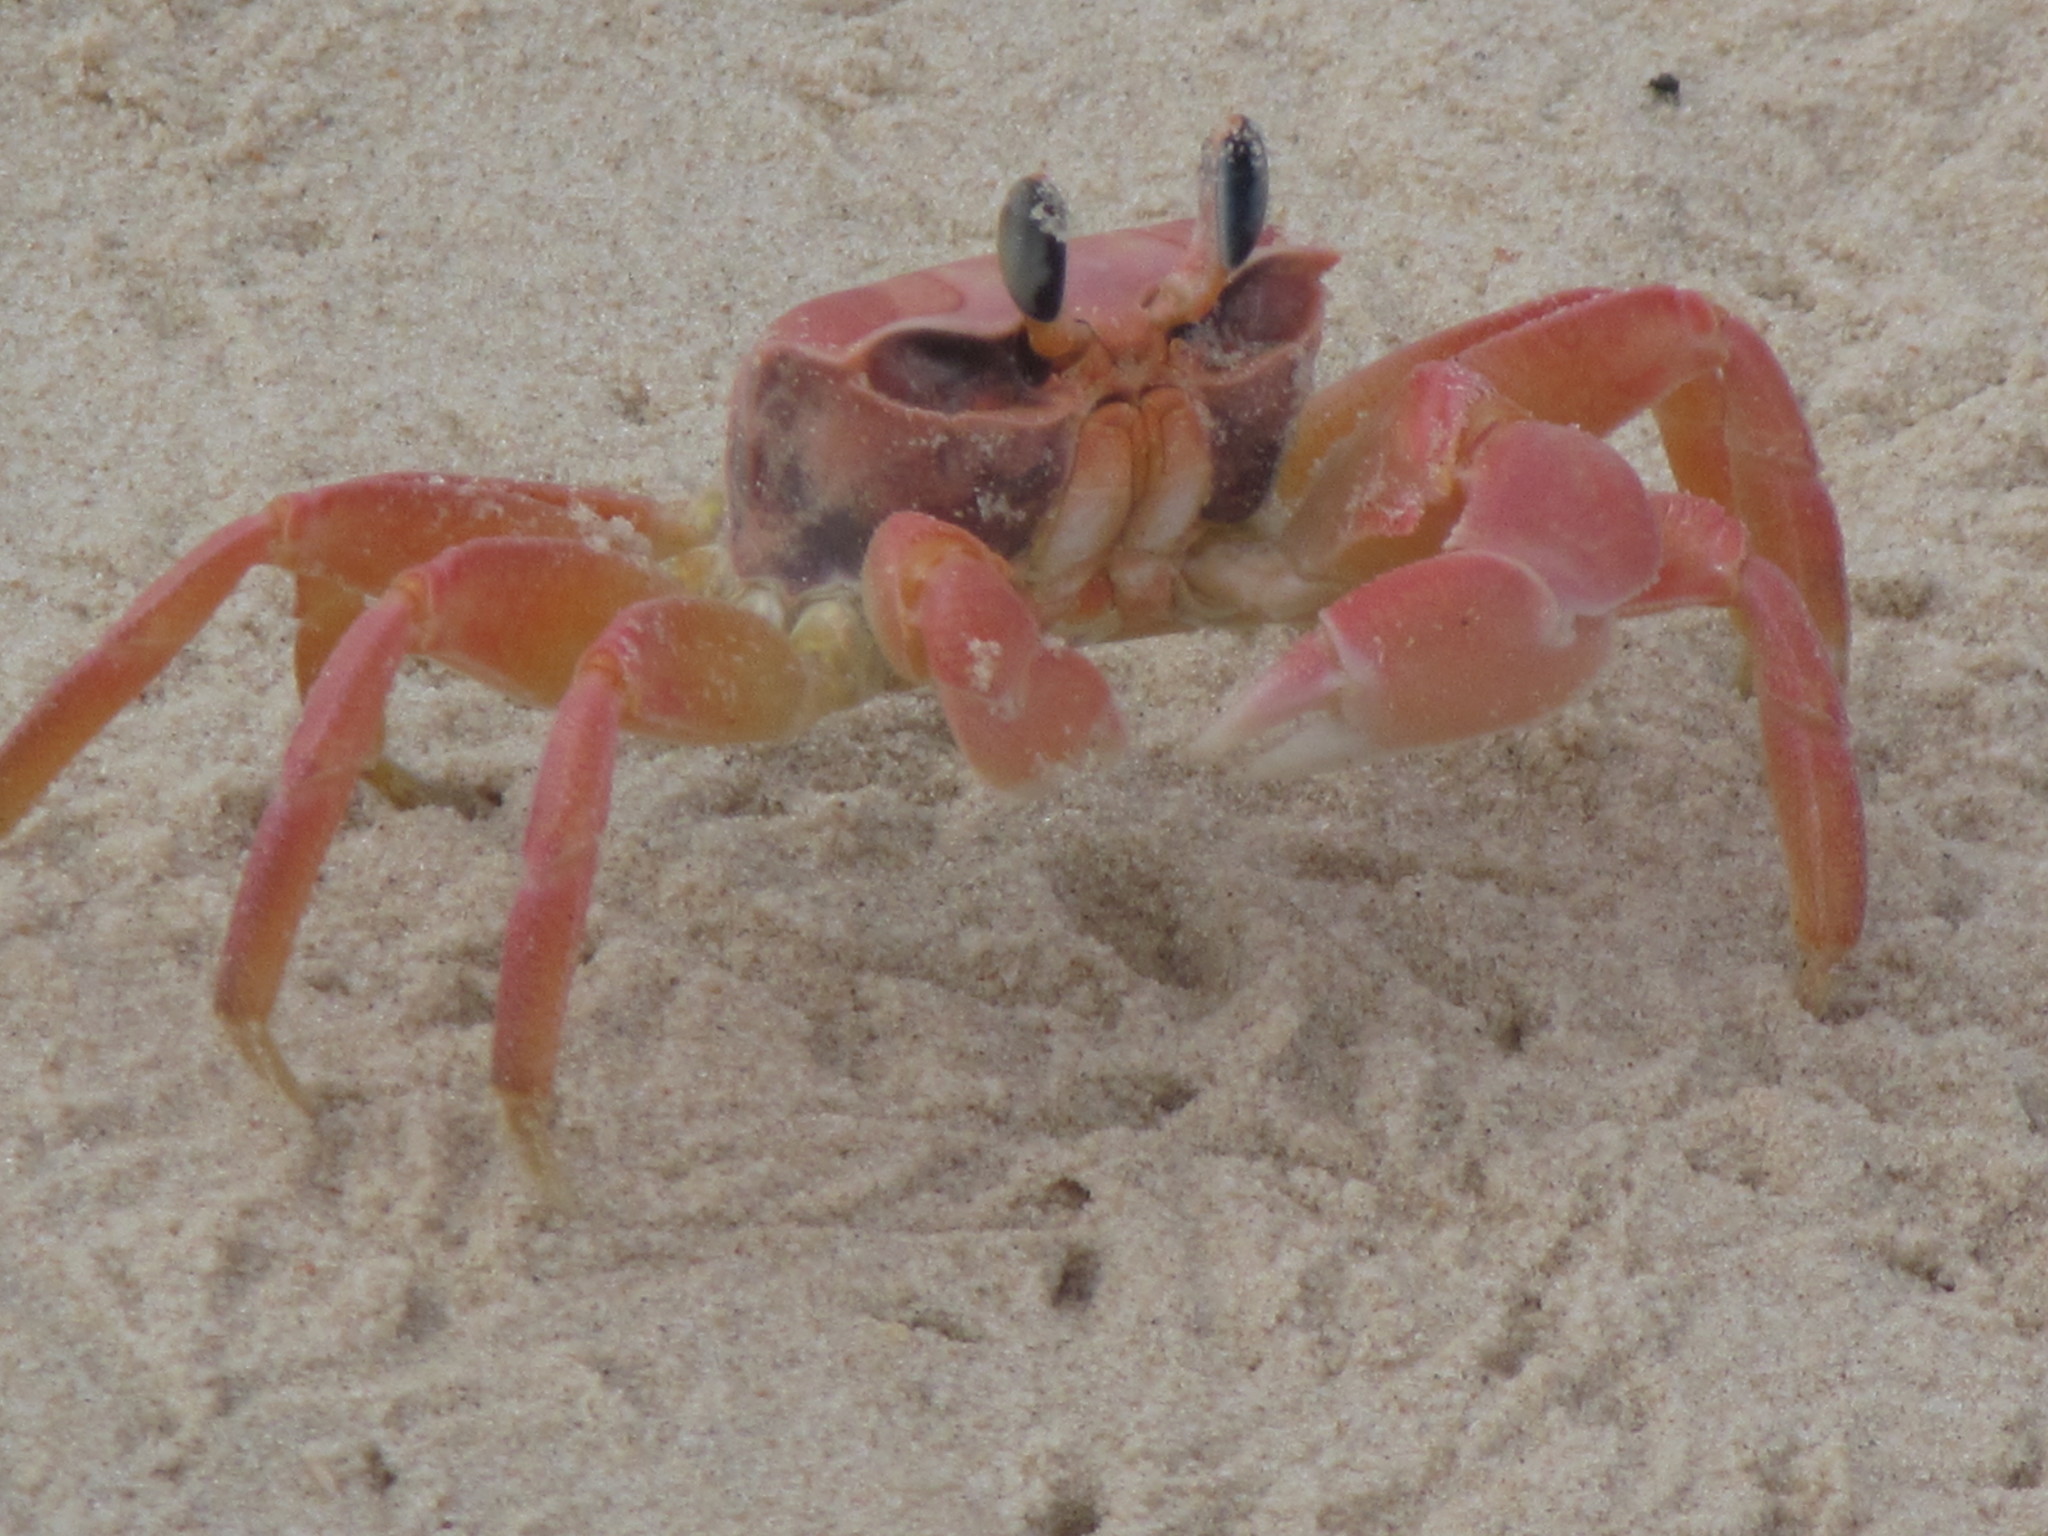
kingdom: Animalia
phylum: Arthropoda
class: Malacostraca
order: Decapoda
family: Ocypodidae
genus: Ocypode
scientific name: Ocypode africana
